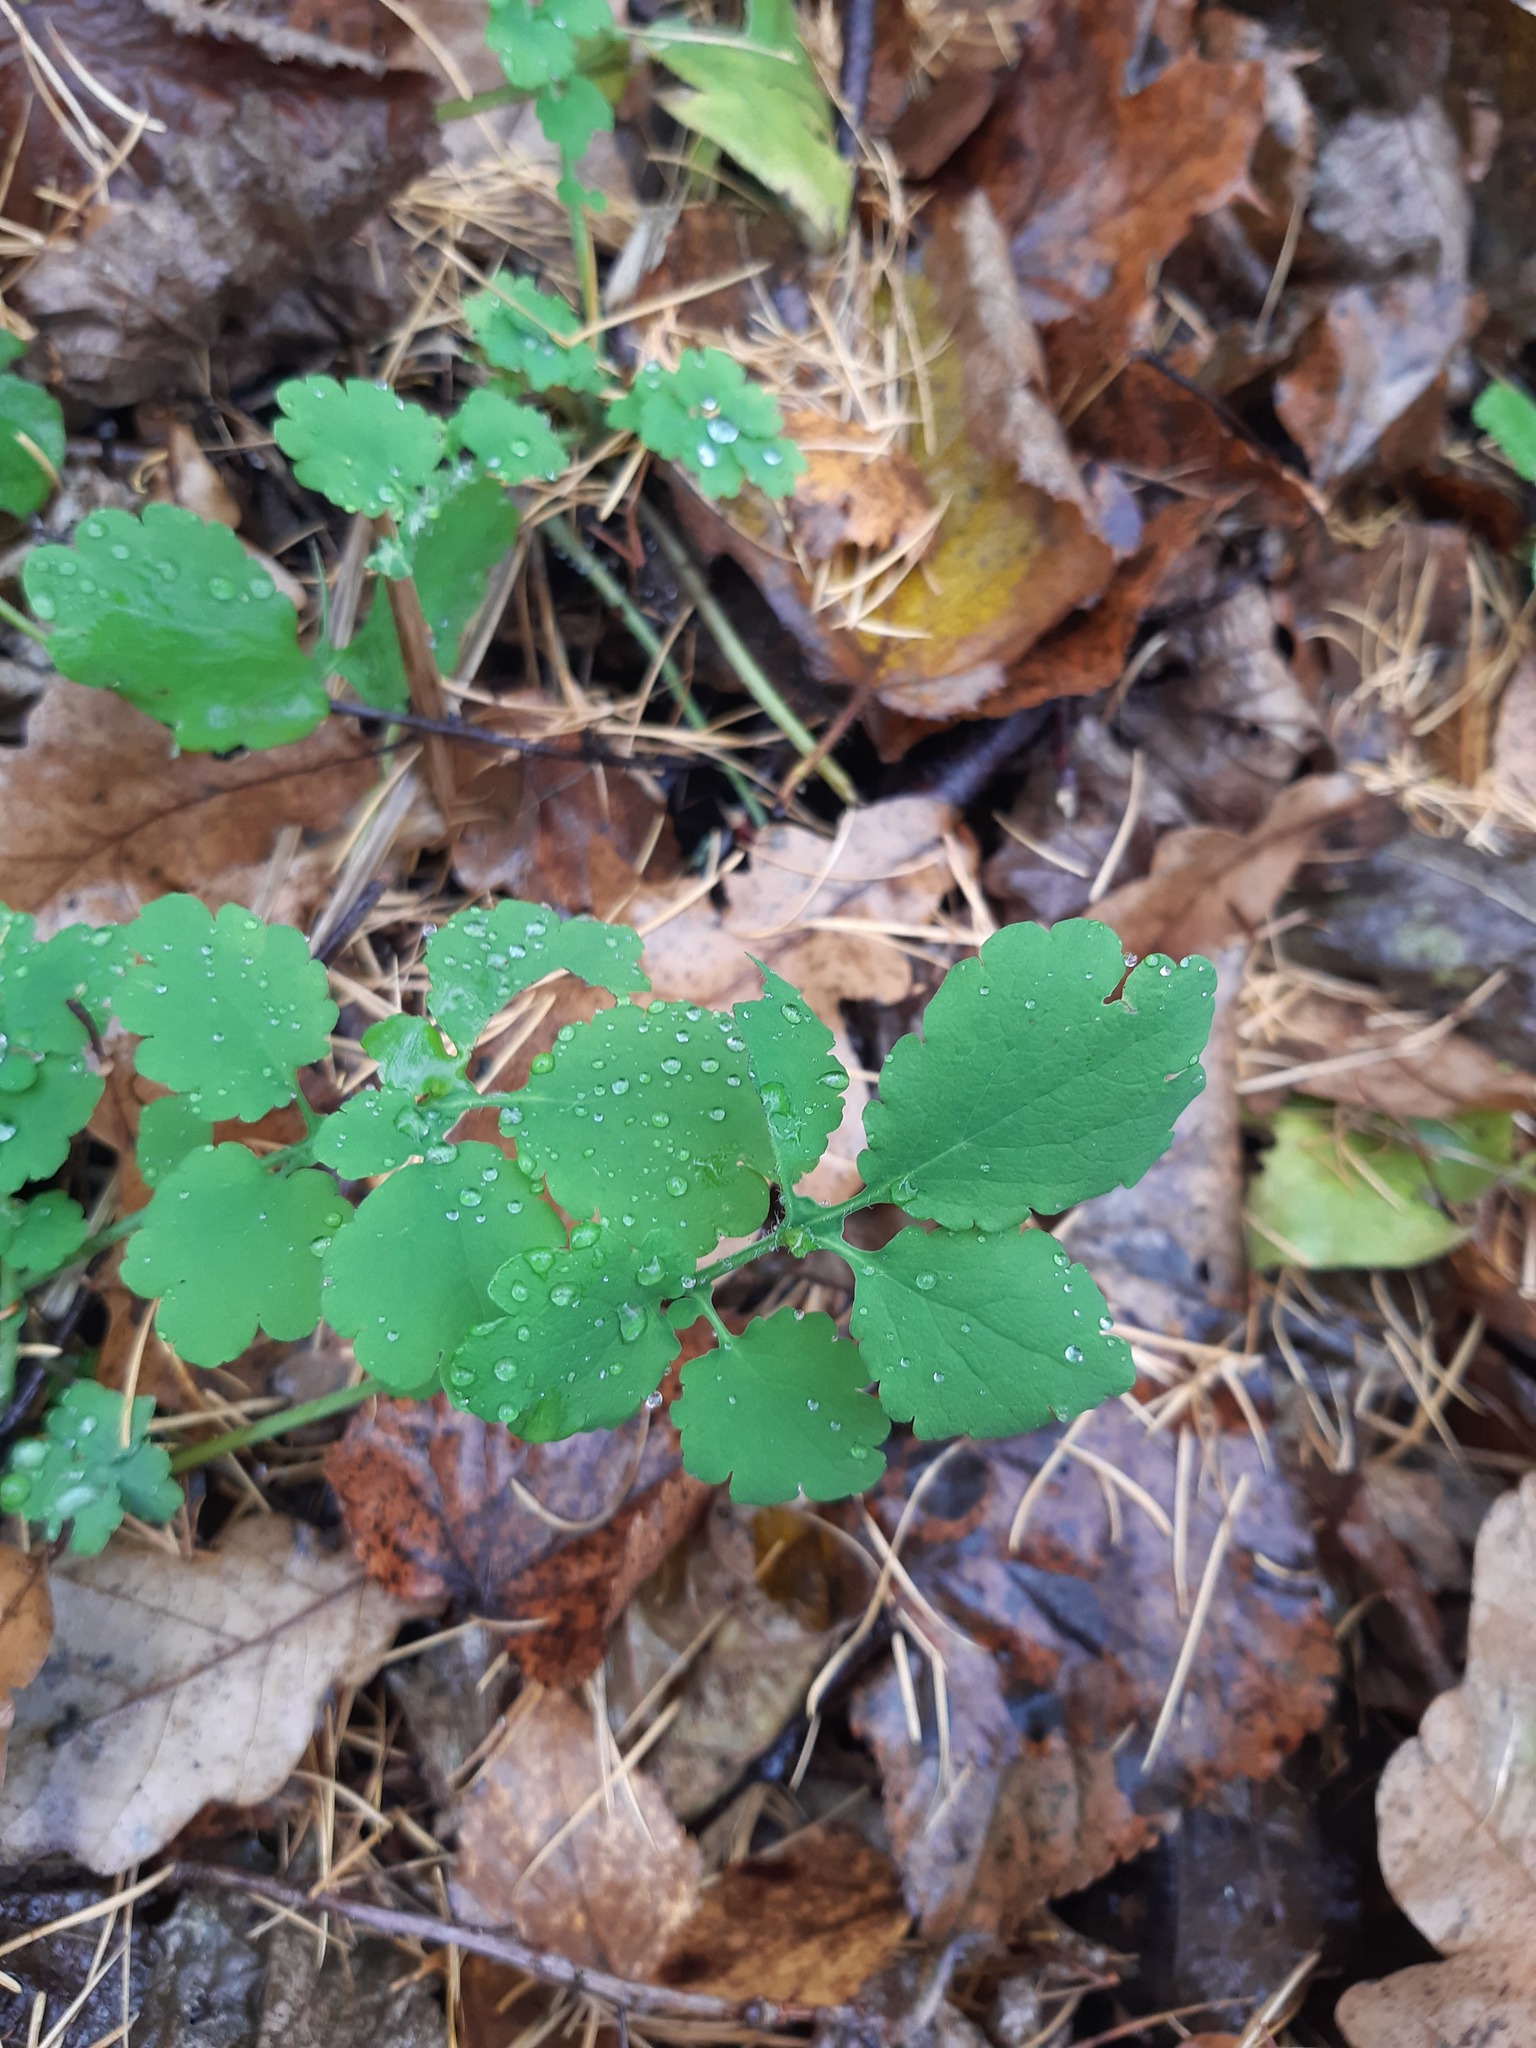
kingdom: Plantae
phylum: Tracheophyta
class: Magnoliopsida
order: Ranunculales
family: Papaveraceae
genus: Chelidonium
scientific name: Chelidonium majus
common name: Greater celandine
